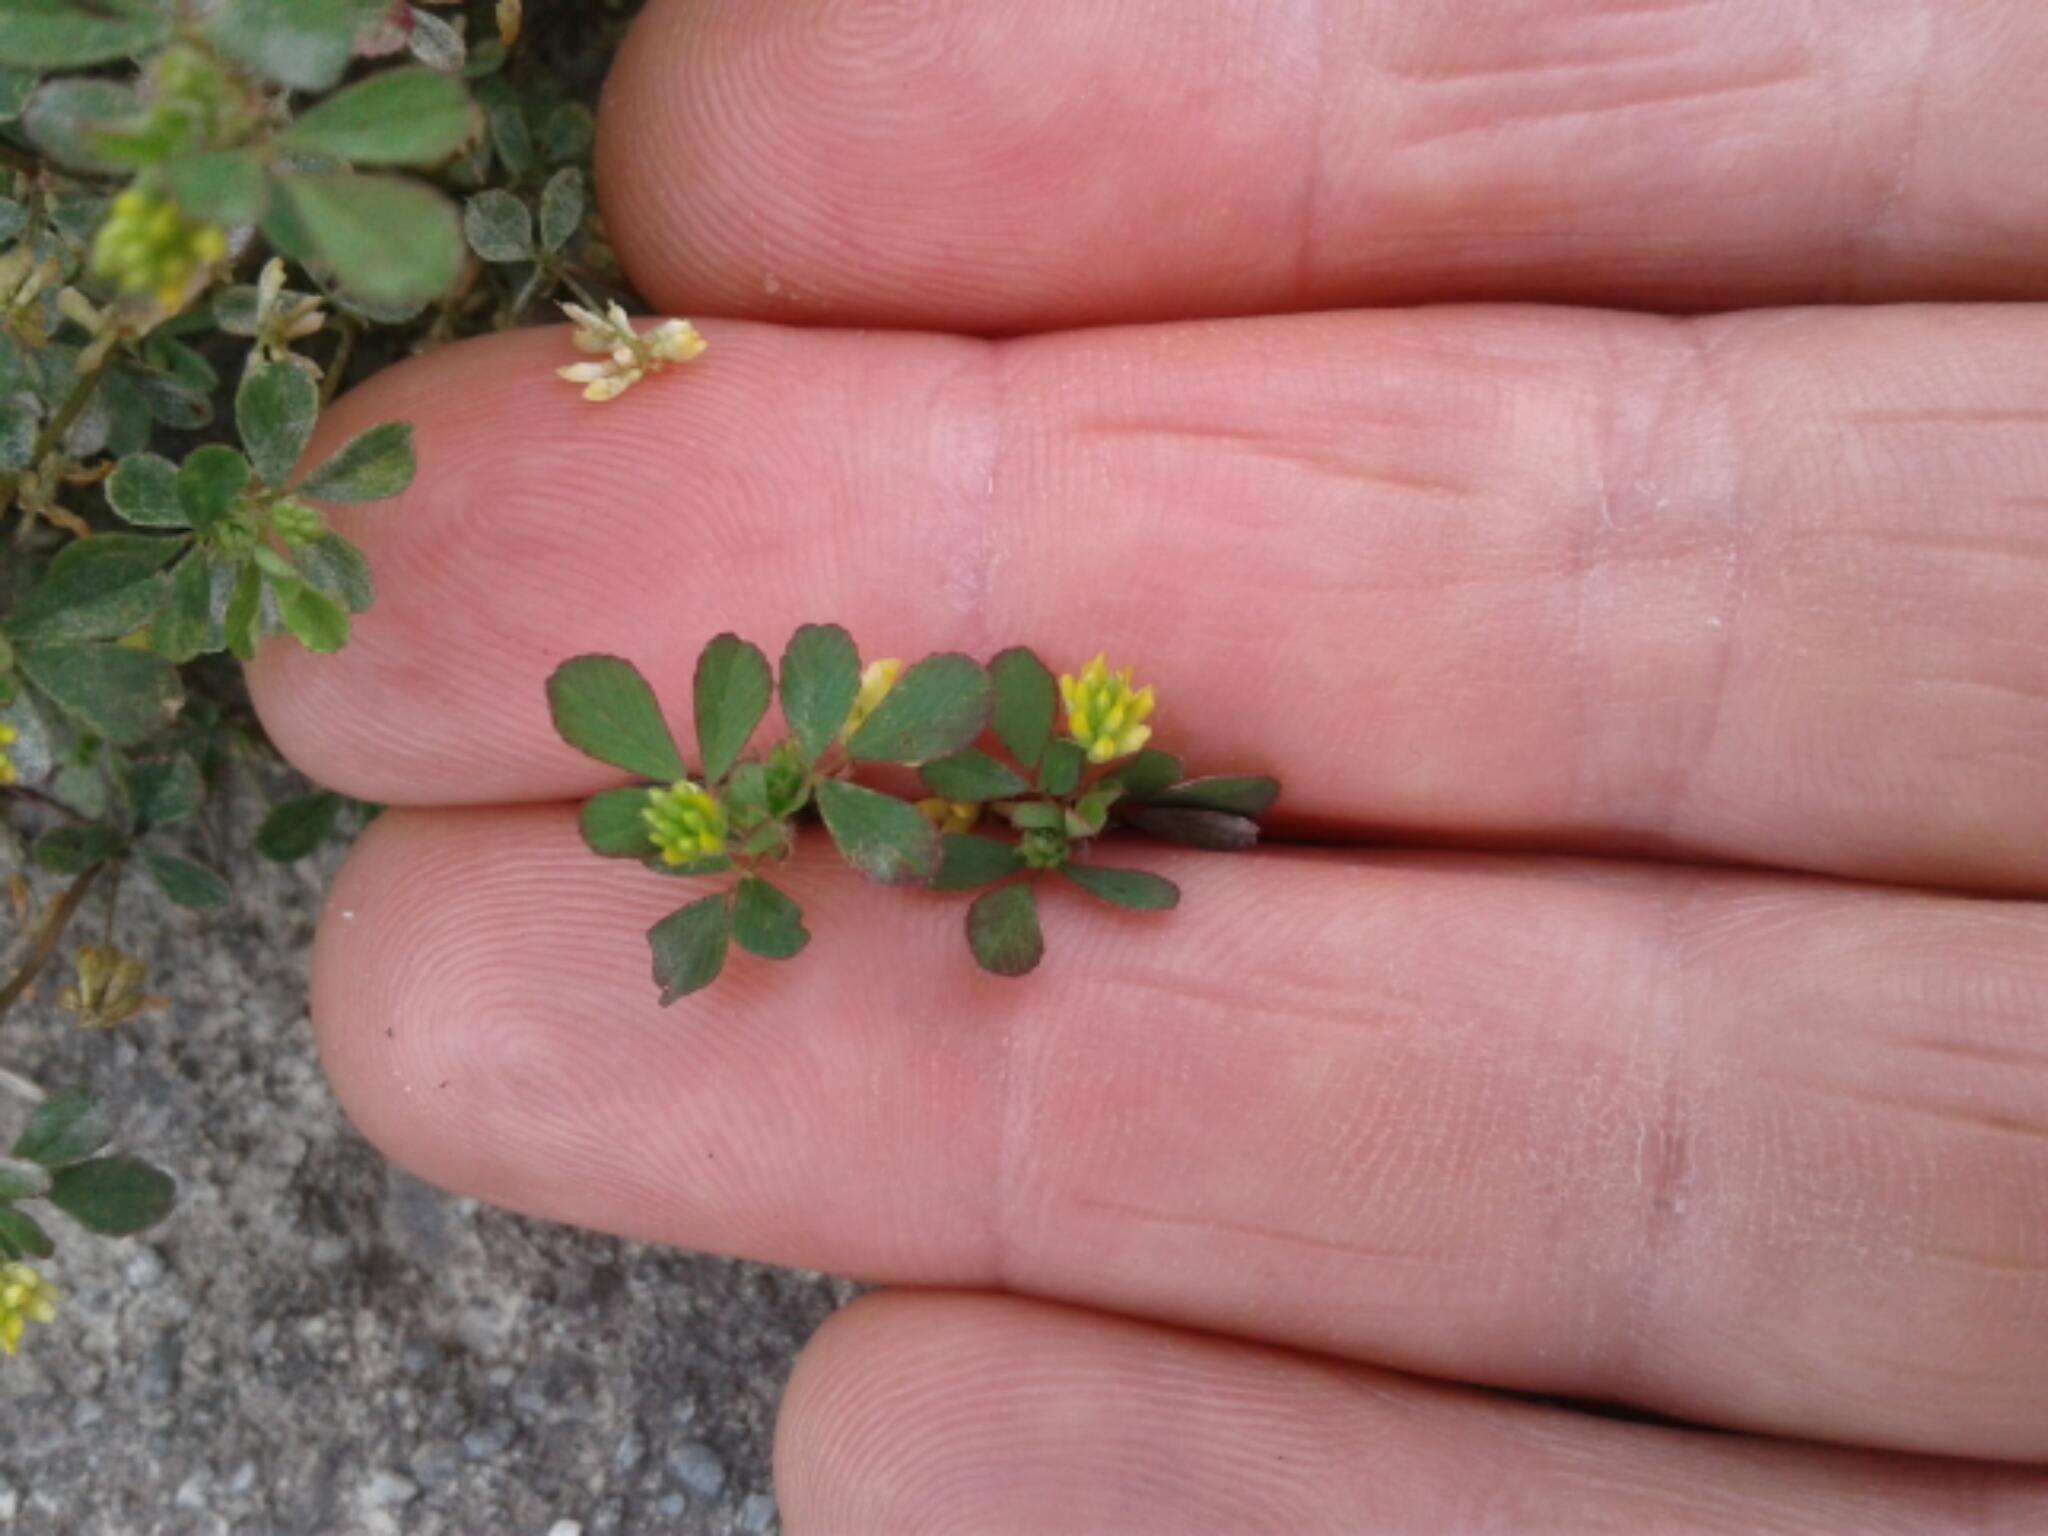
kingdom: Plantae
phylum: Tracheophyta
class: Magnoliopsida
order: Fabales
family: Fabaceae
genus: Trifolium
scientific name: Trifolium dubium
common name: Suckling clover
